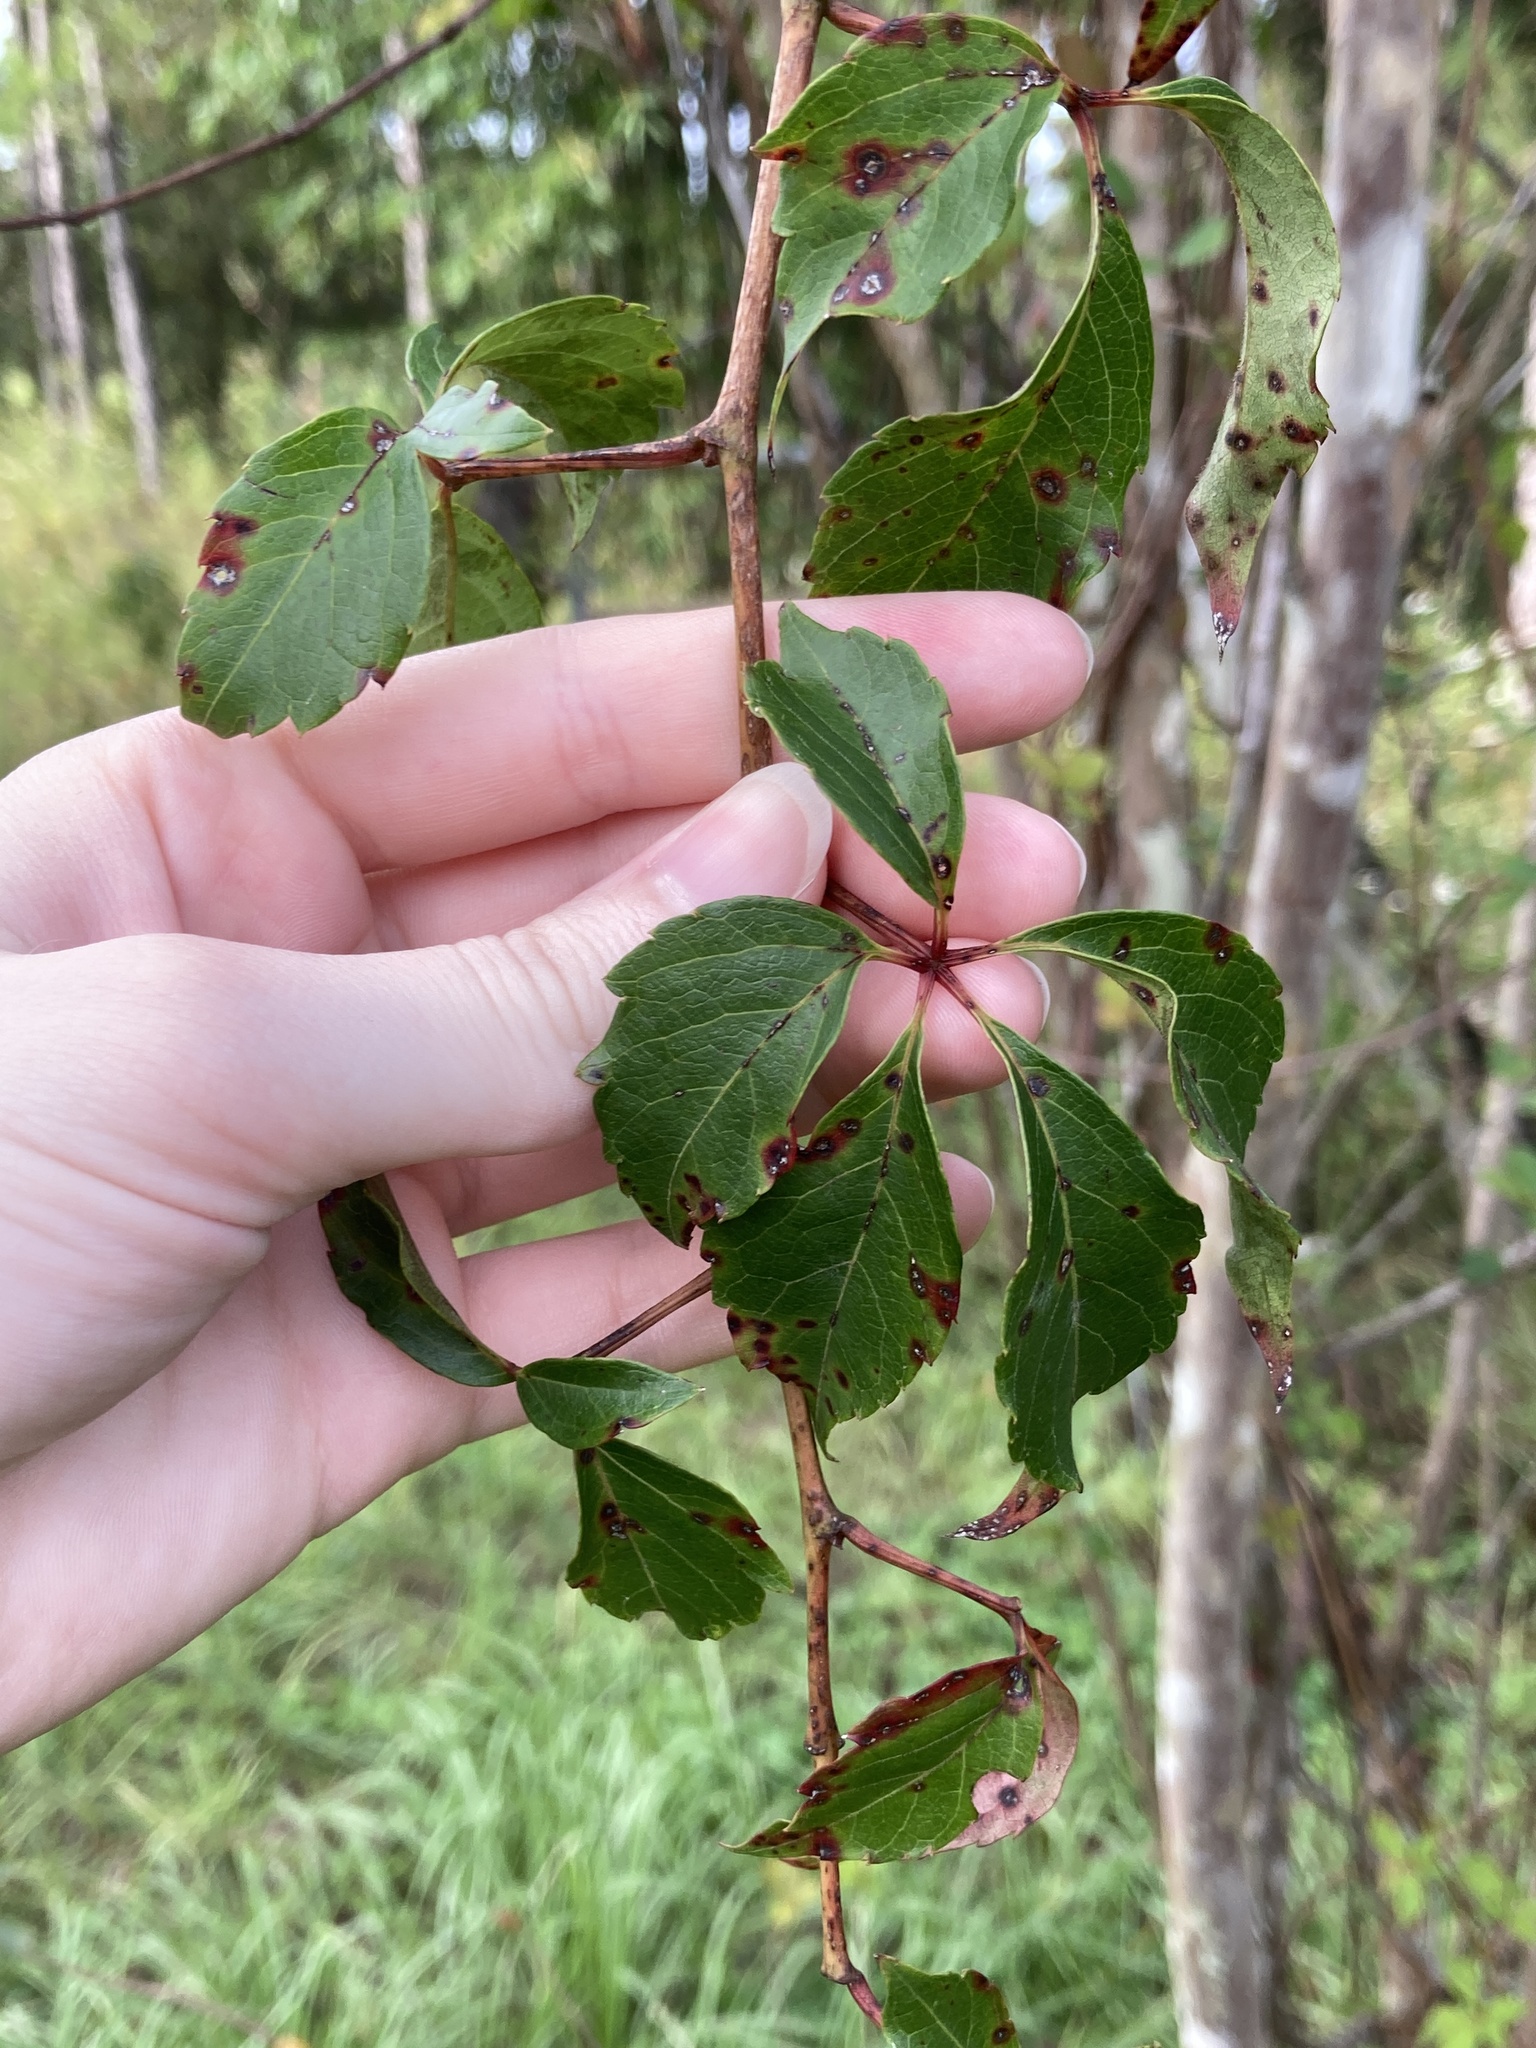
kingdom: Plantae
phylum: Tracheophyta
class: Magnoliopsida
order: Vitales
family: Vitaceae
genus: Parthenocissus
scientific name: Parthenocissus quinquefolia
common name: Virginia-creeper
